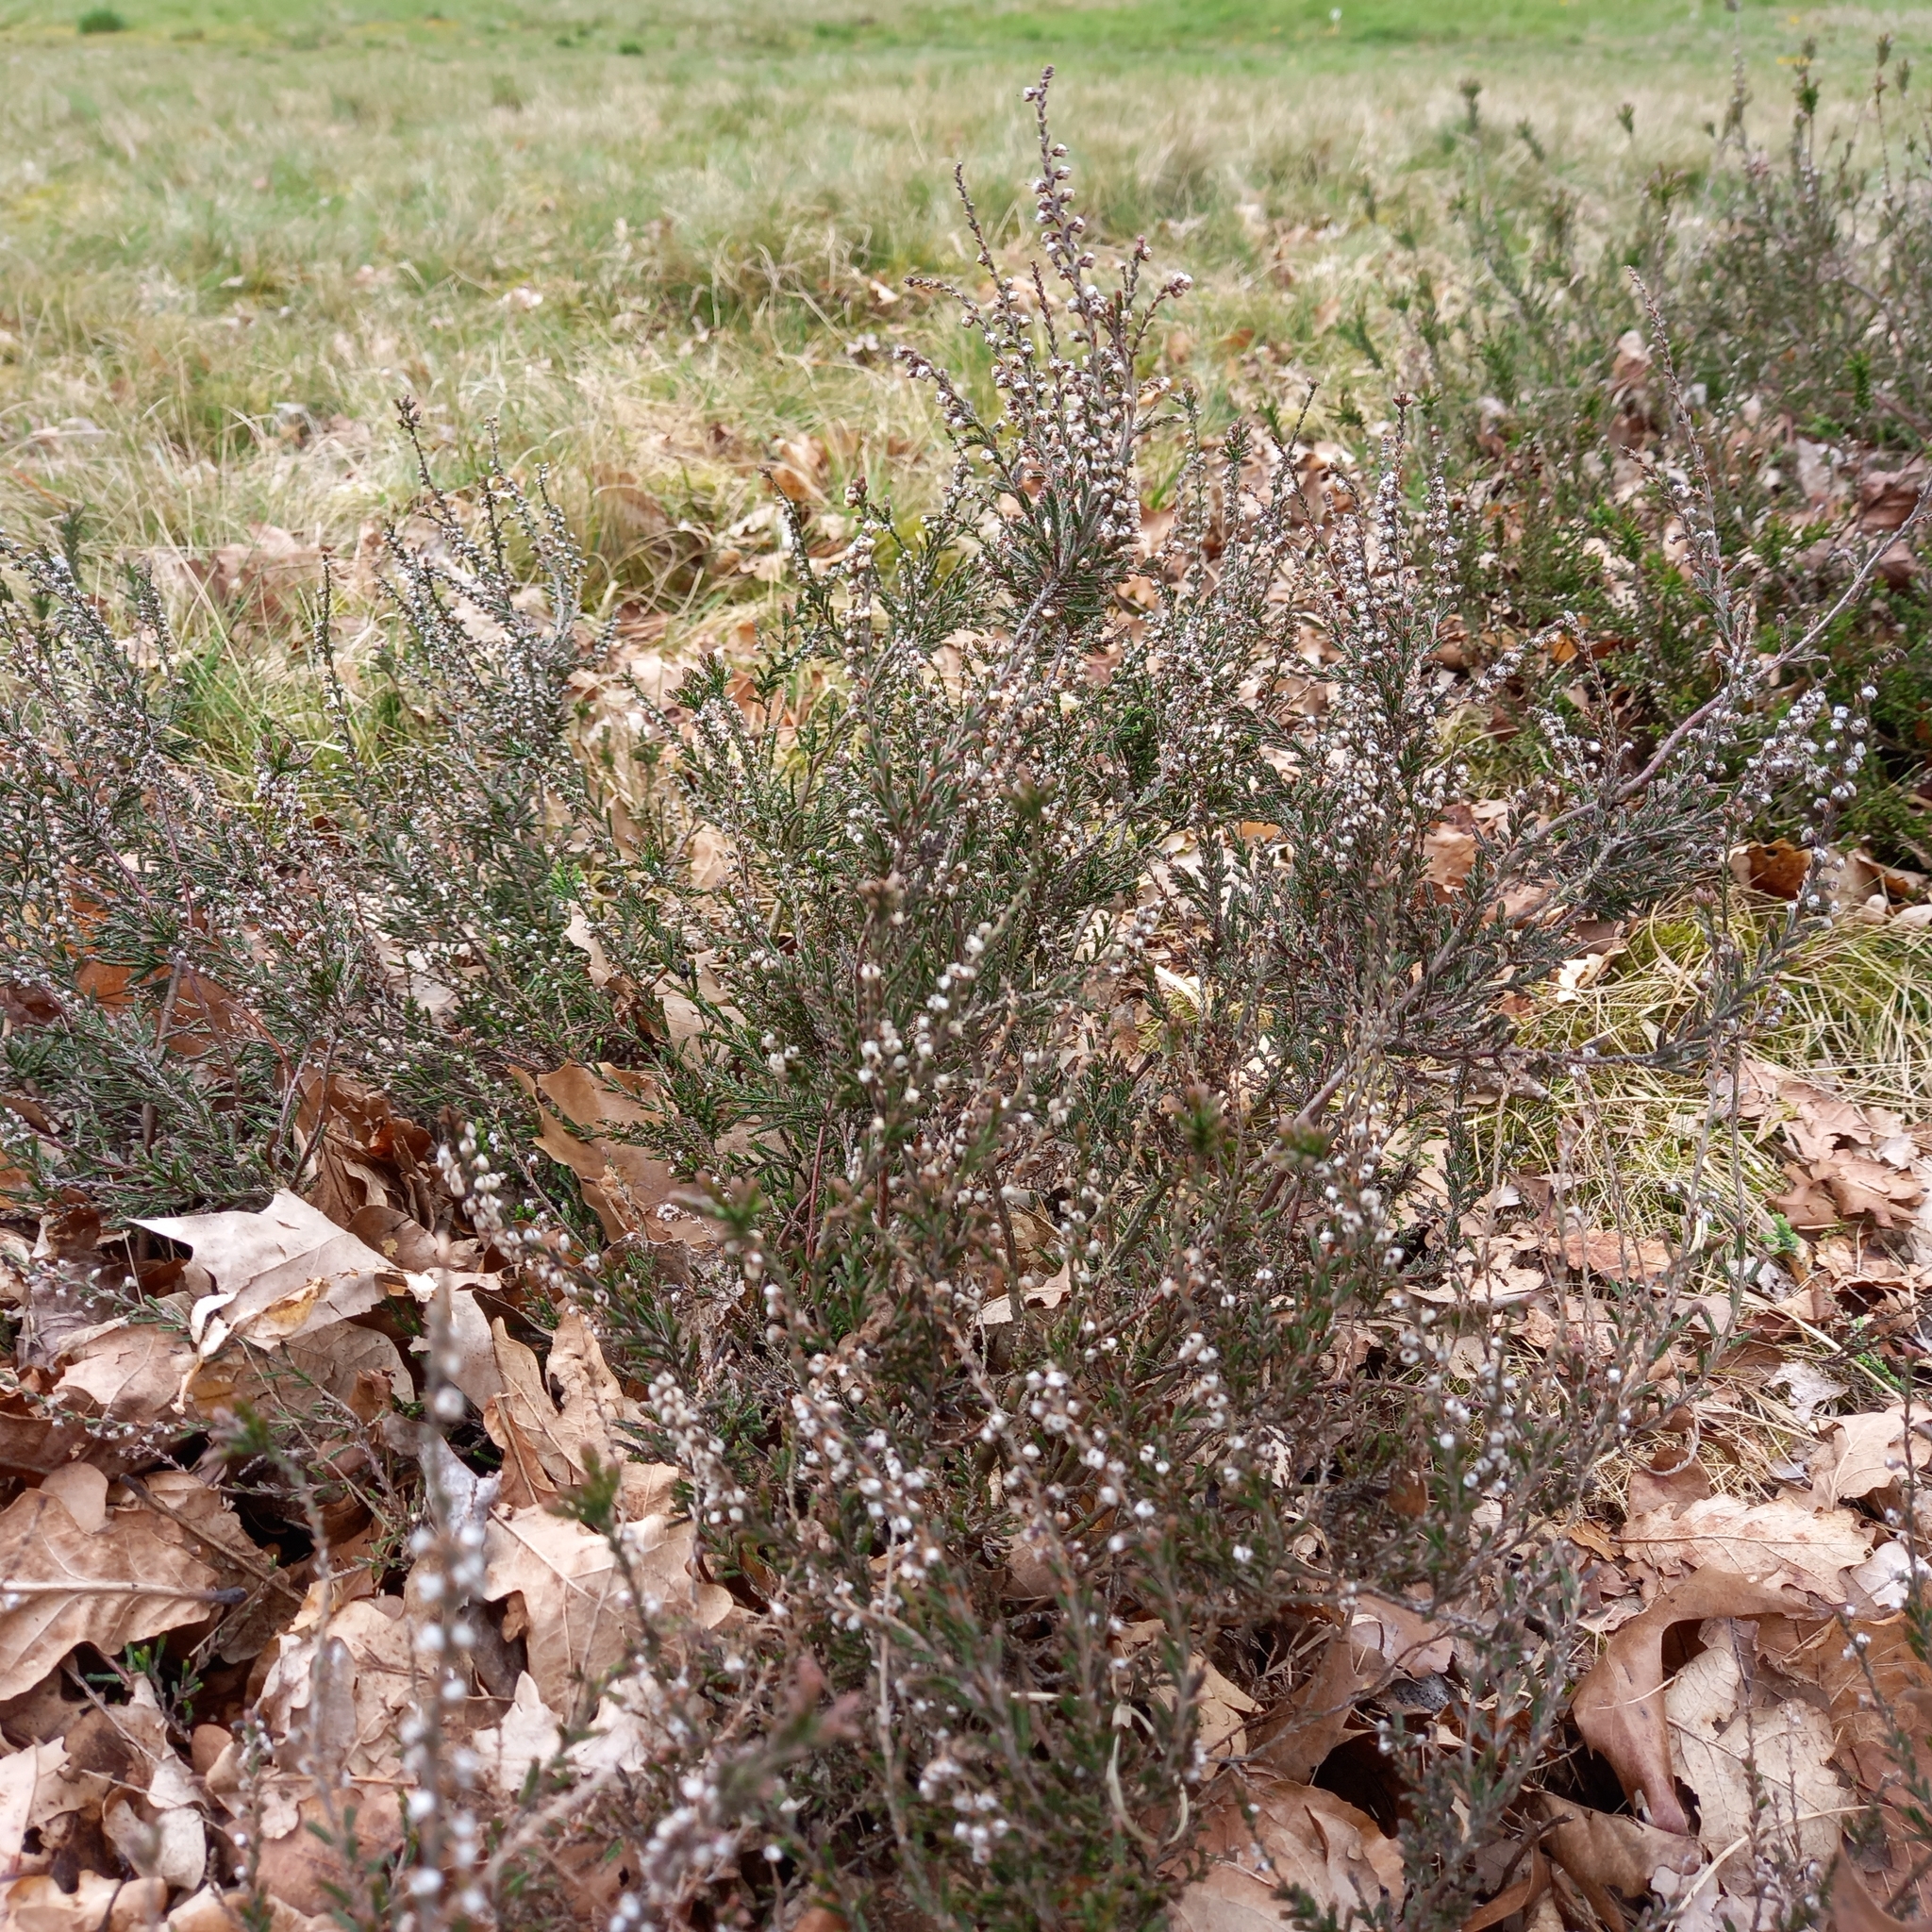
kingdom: Plantae
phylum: Tracheophyta
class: Magnoliopsida
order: Ericales
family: Ericaceae
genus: Calluna
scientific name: Calluna vulgaris
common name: Heather
